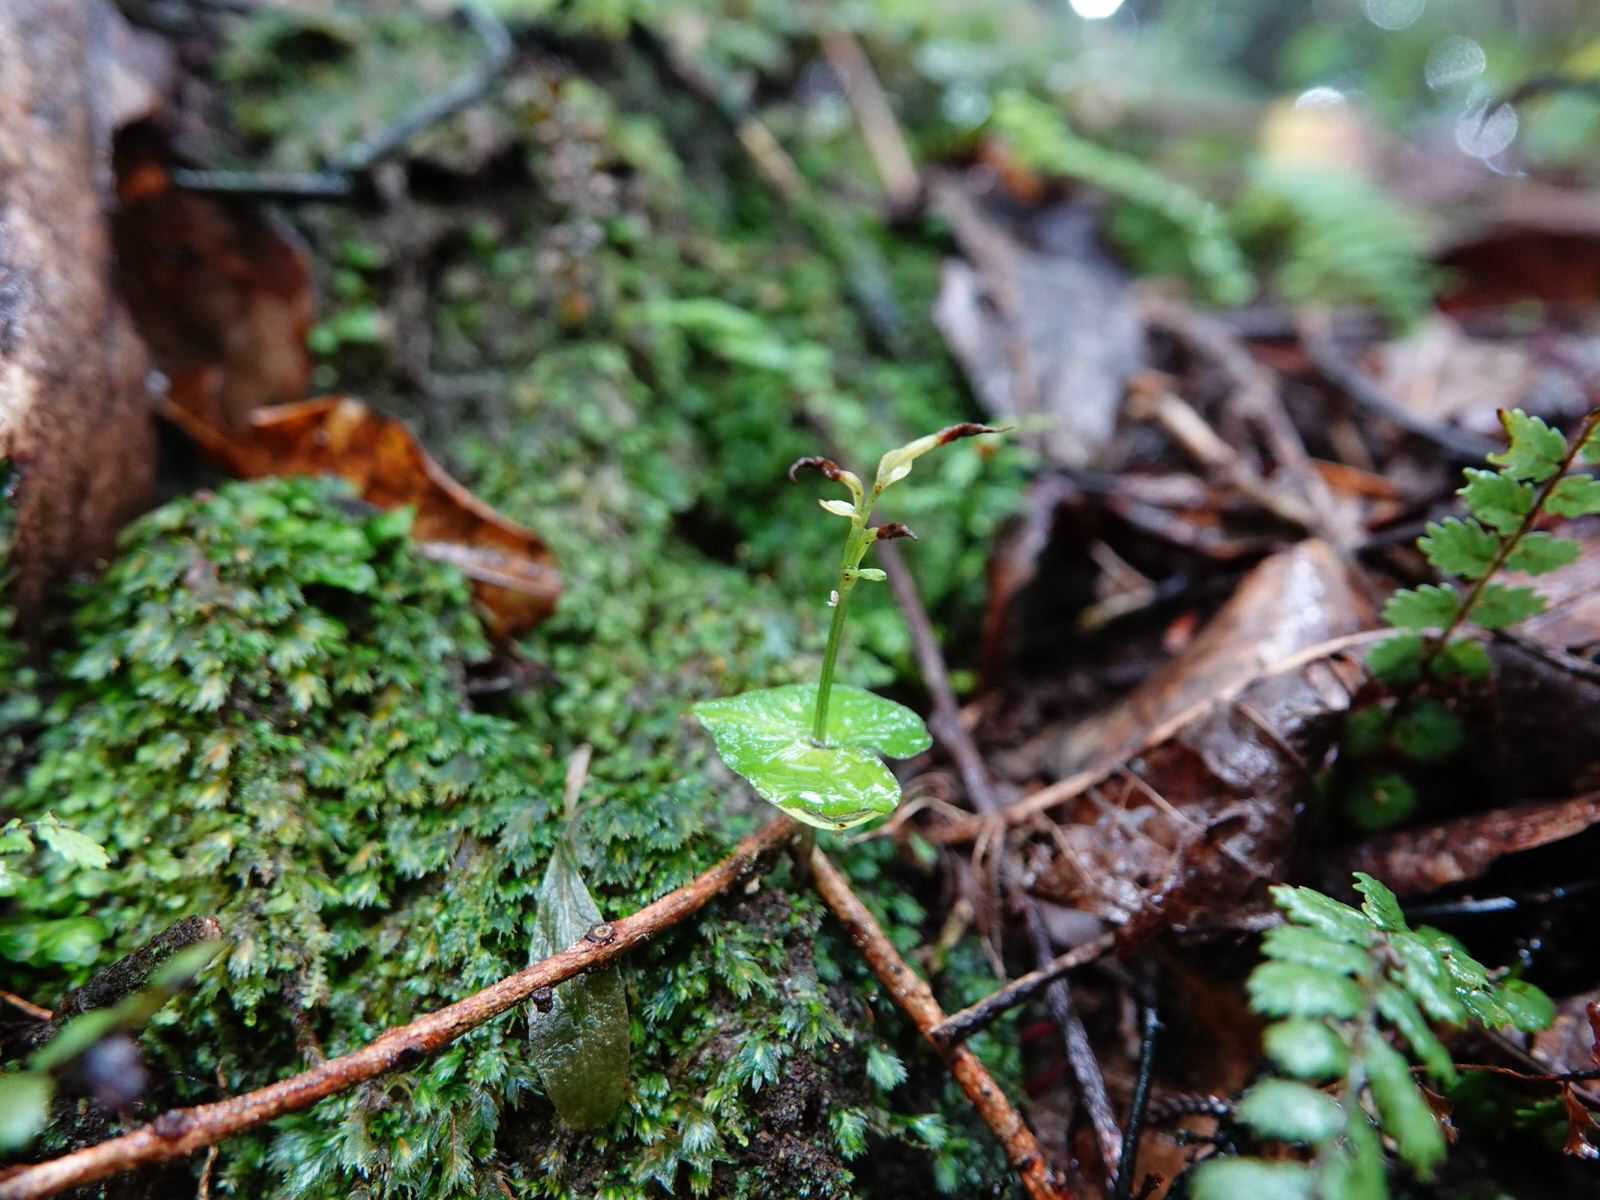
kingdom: Plantae
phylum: Tracheophyta
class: Liliopsida
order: Asparagales
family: Orchidaceae
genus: Acianthus
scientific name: Acianthus sinclairii
